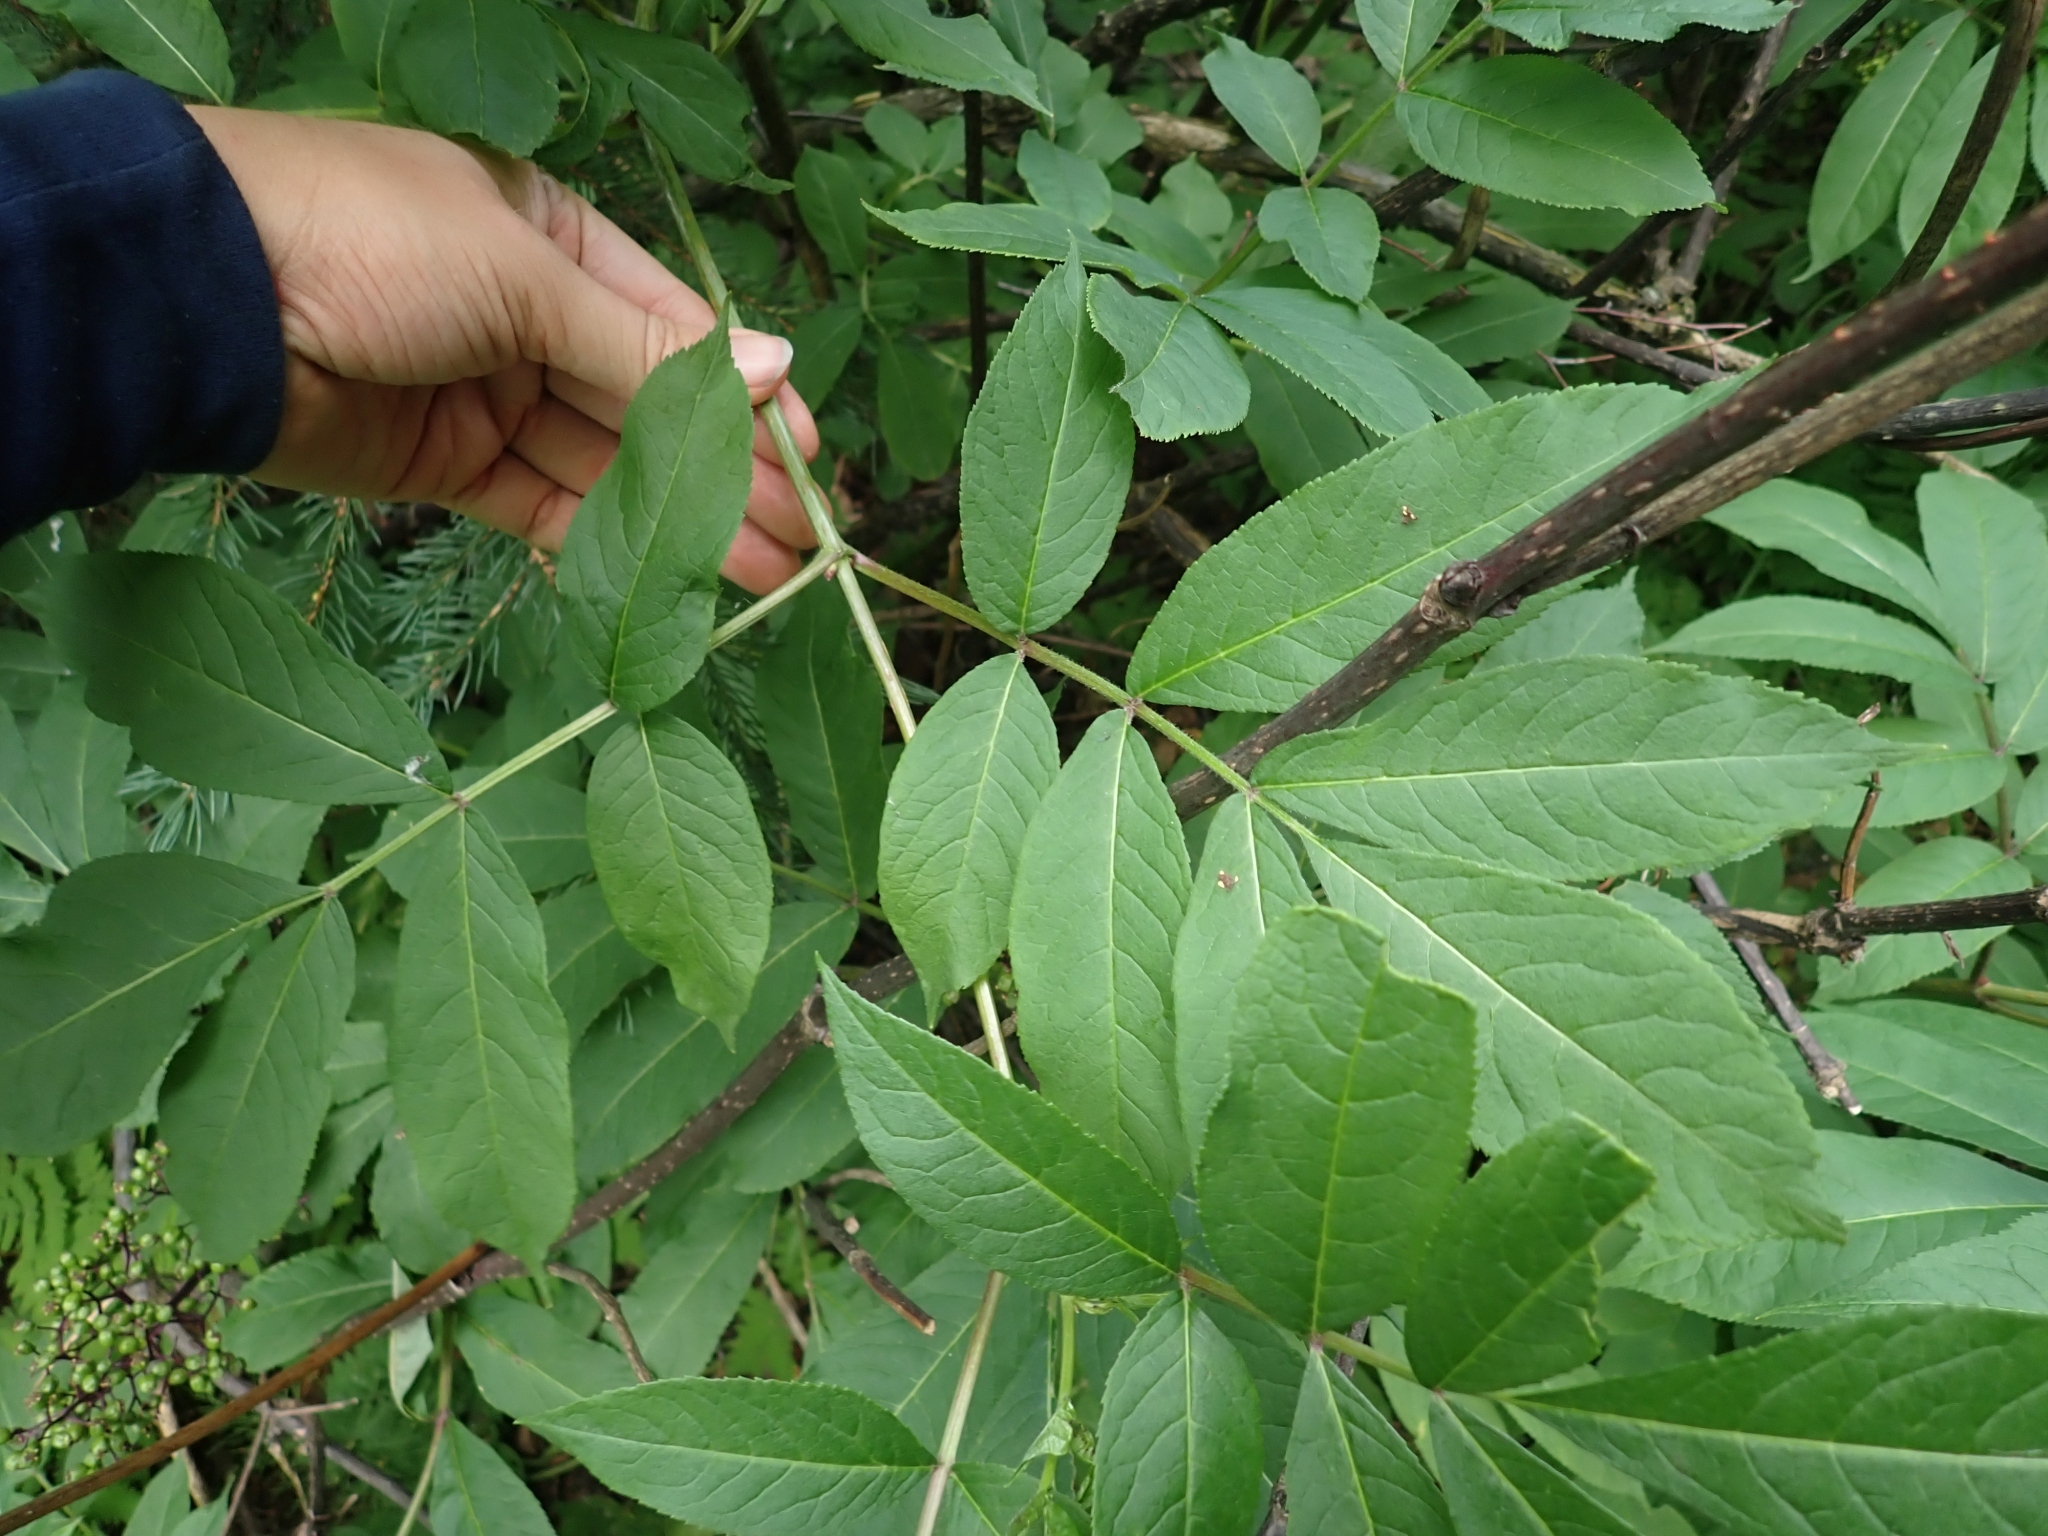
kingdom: Plantae
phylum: Tracheophyta
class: Magnoliopsida
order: Dipsacales
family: Viburnaceae
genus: Sambucus
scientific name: Sambucus racemosa
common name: Red-berried elder
